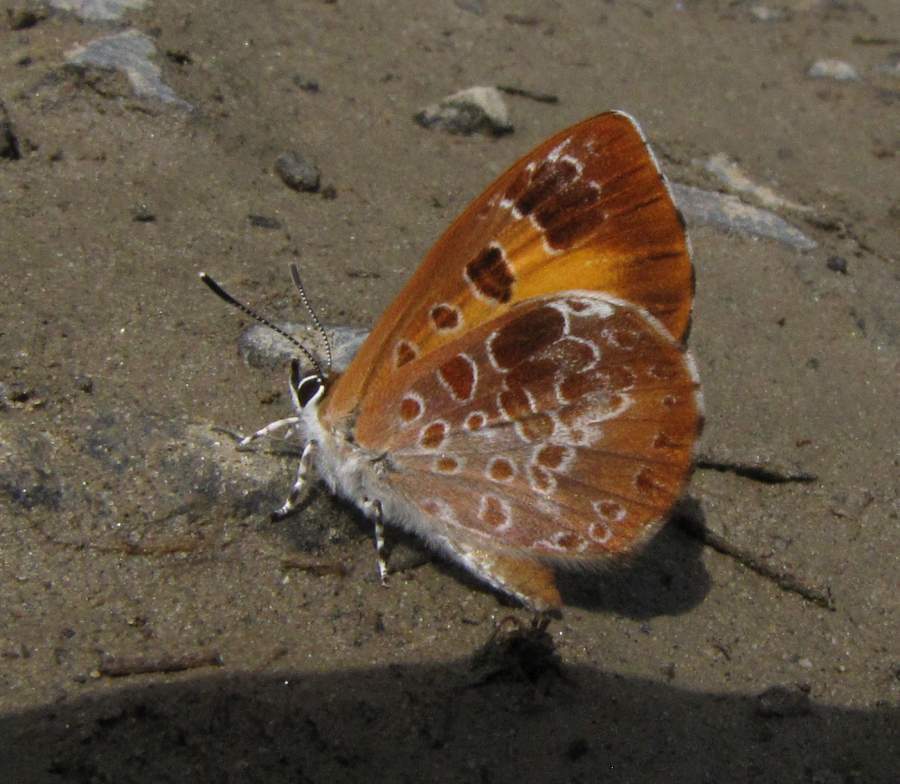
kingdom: Animalia
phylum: Arthropoda
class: Insecta
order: Lepidoptera
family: Lycaenidae
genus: Feniseca
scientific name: Feniseca tarquinius
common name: Harvester
